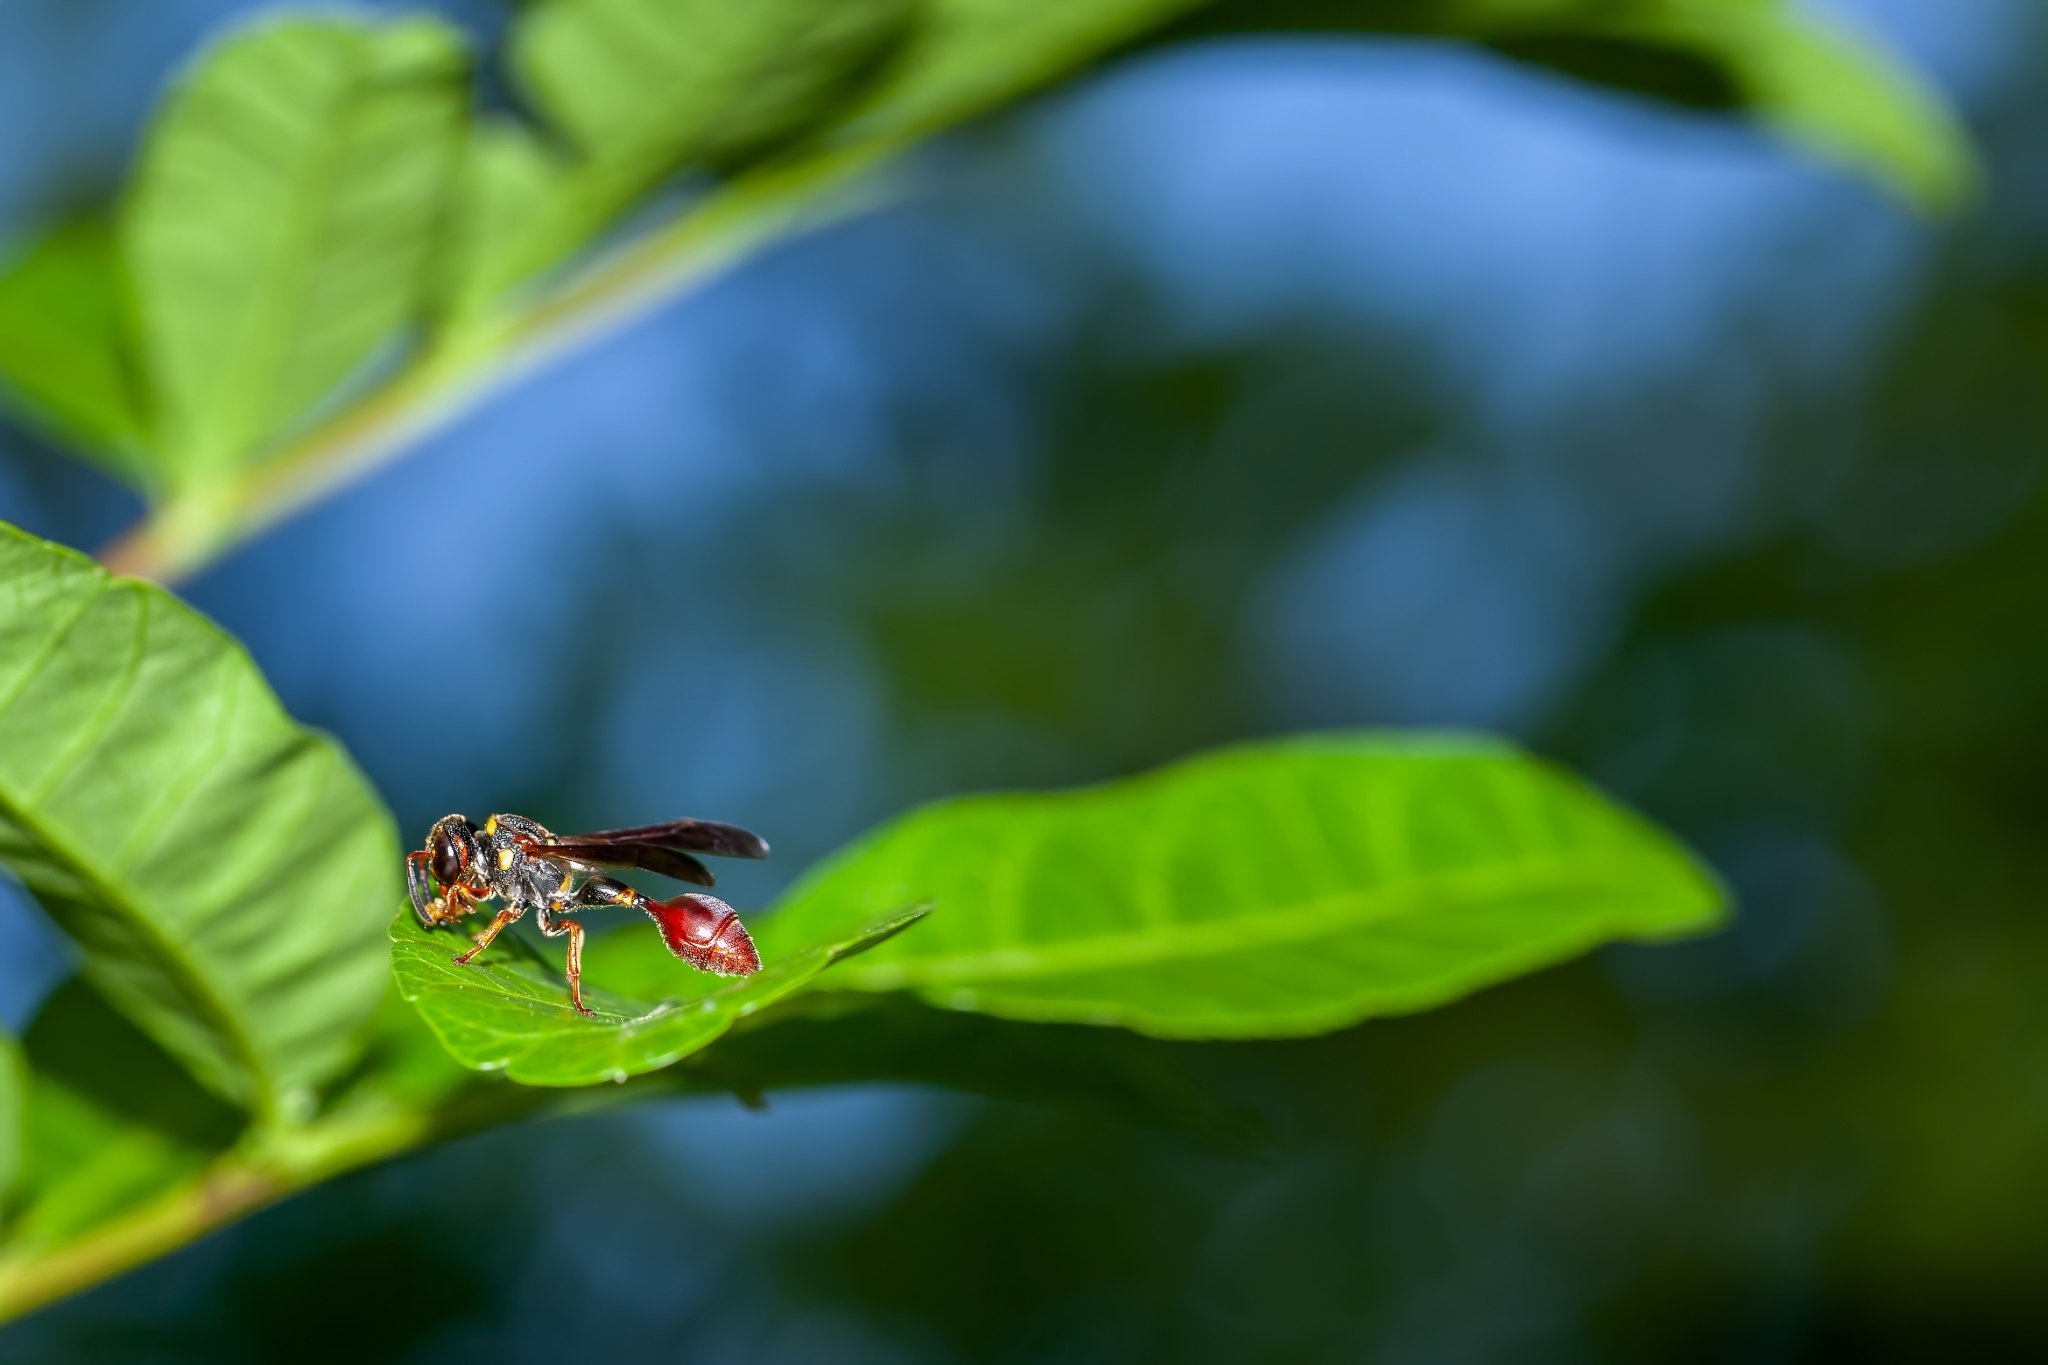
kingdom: Animalia
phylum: Arthropoda
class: Insecta
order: Hymenoptera
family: Eumenidae
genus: Zethus
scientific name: Zethus slossonae
